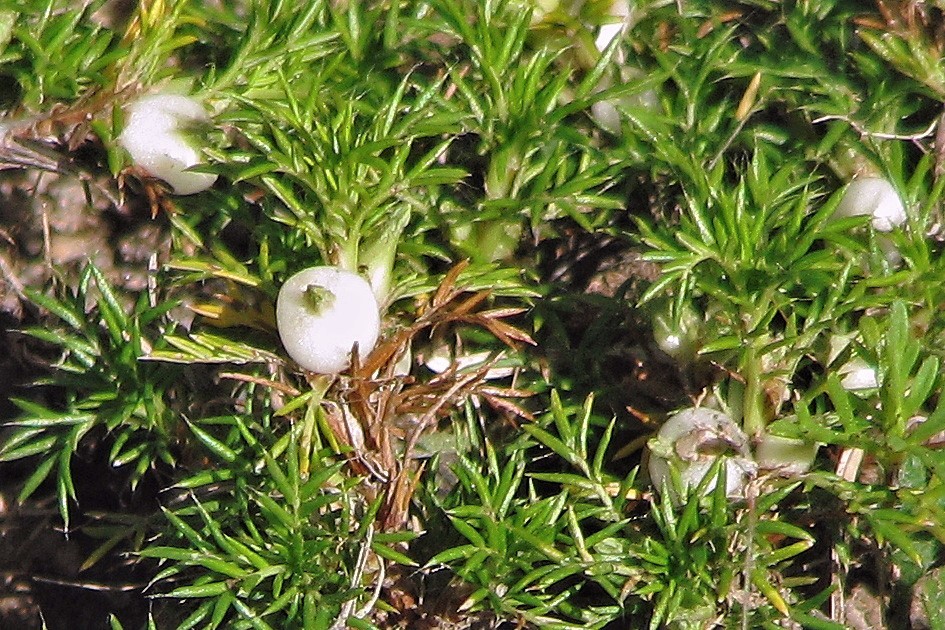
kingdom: Plantae
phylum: Tracheophyta
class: Magnoliopsida
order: Rosales
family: Rosaceae
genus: Margyricarpus
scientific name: Margyricarpus pinnatus
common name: Pearlfruit
